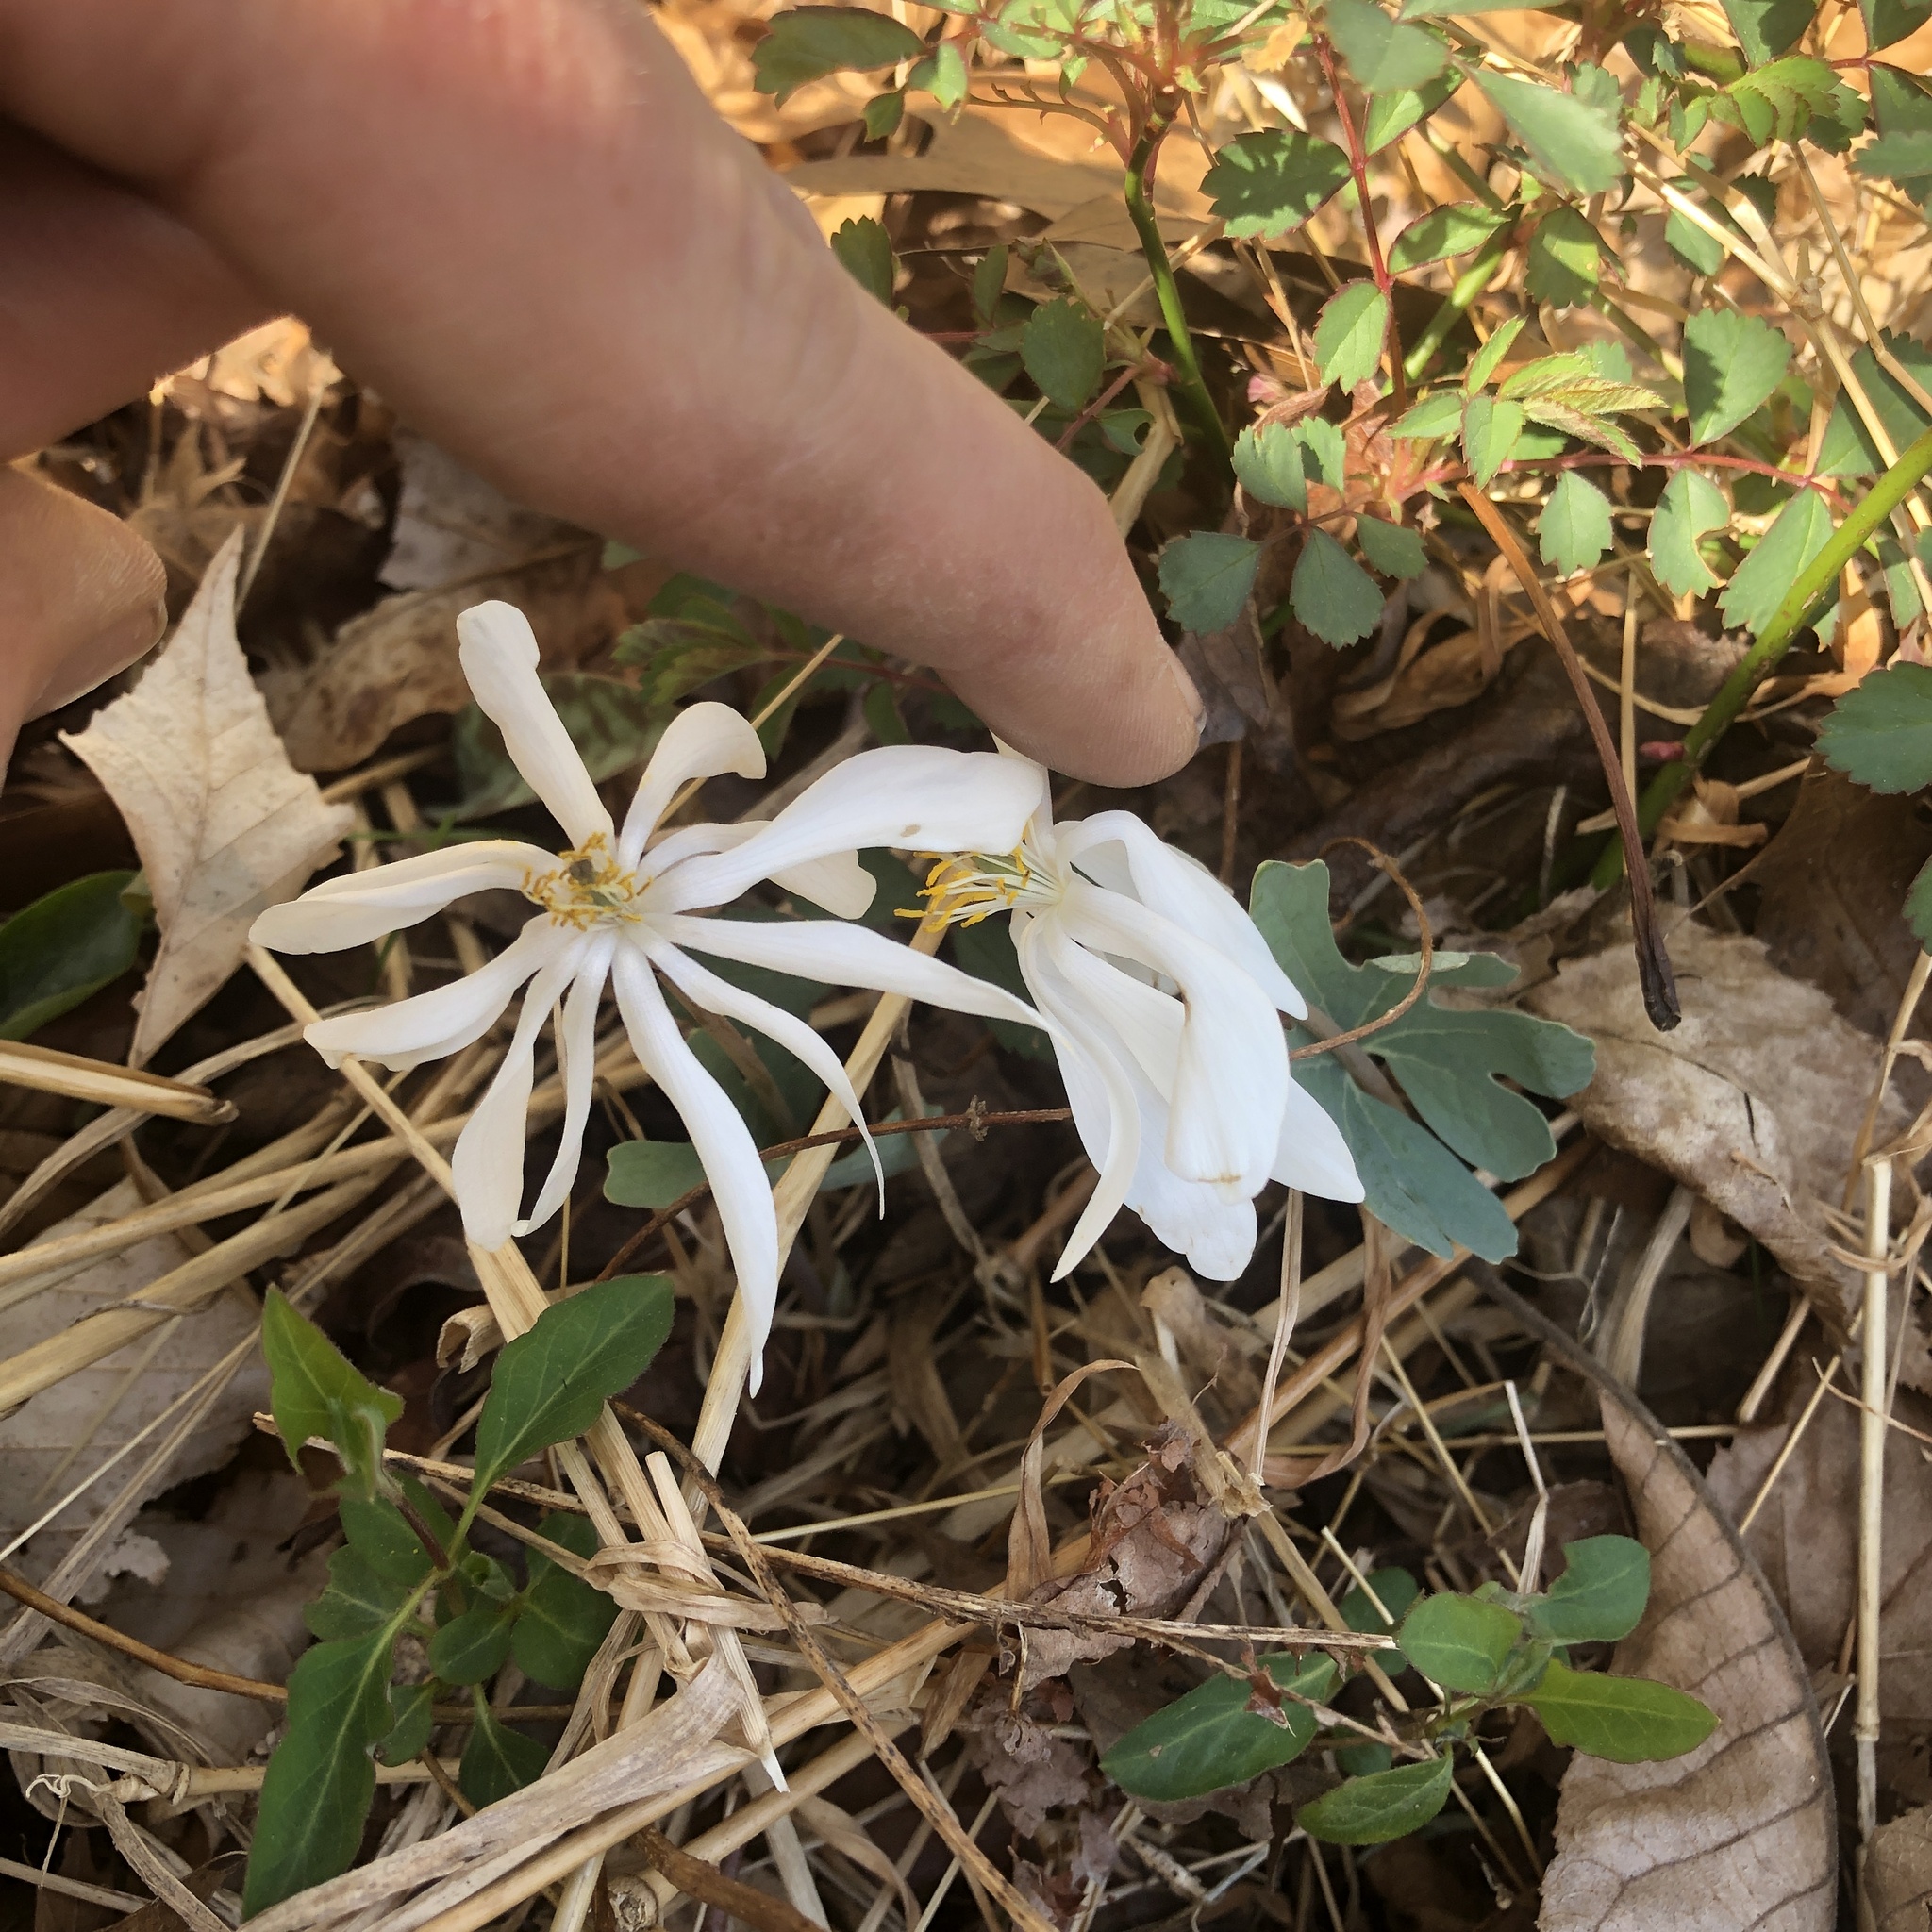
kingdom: Plantae
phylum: Tracheophyta
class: Magnoliopsida
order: Ranunculales
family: Papaveraceae
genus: Sanguinaria
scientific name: Sanguinaria canadensis
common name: Bloodroot
